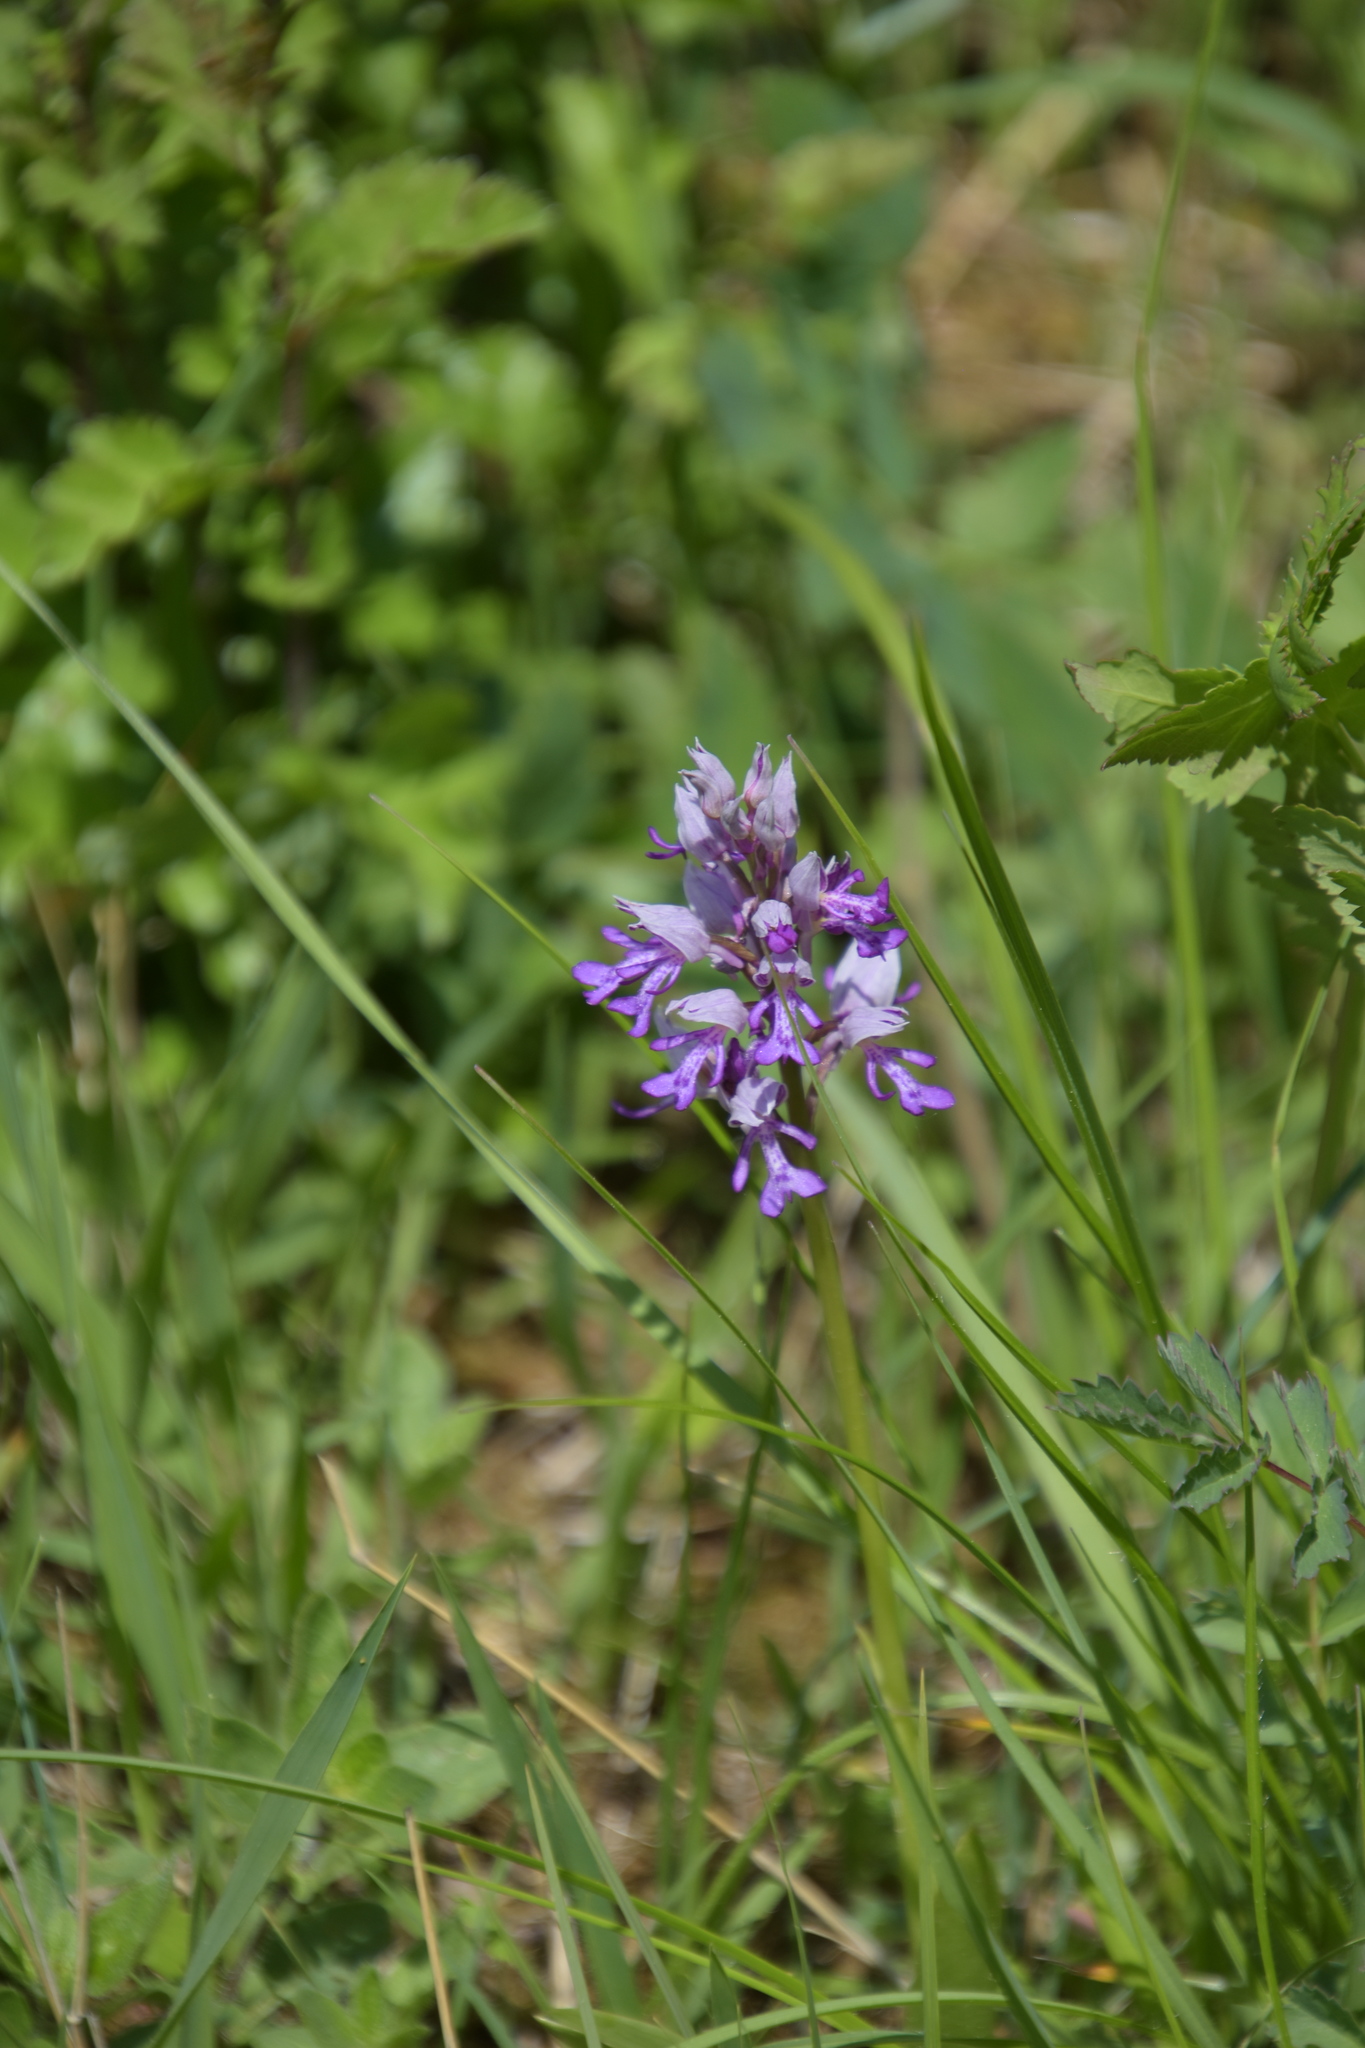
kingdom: Plantae
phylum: Tracheophyta
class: Liliopsida
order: Asparagales
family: Orchidaceae
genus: Orchis
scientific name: Orchis militaris
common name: Military orchid
